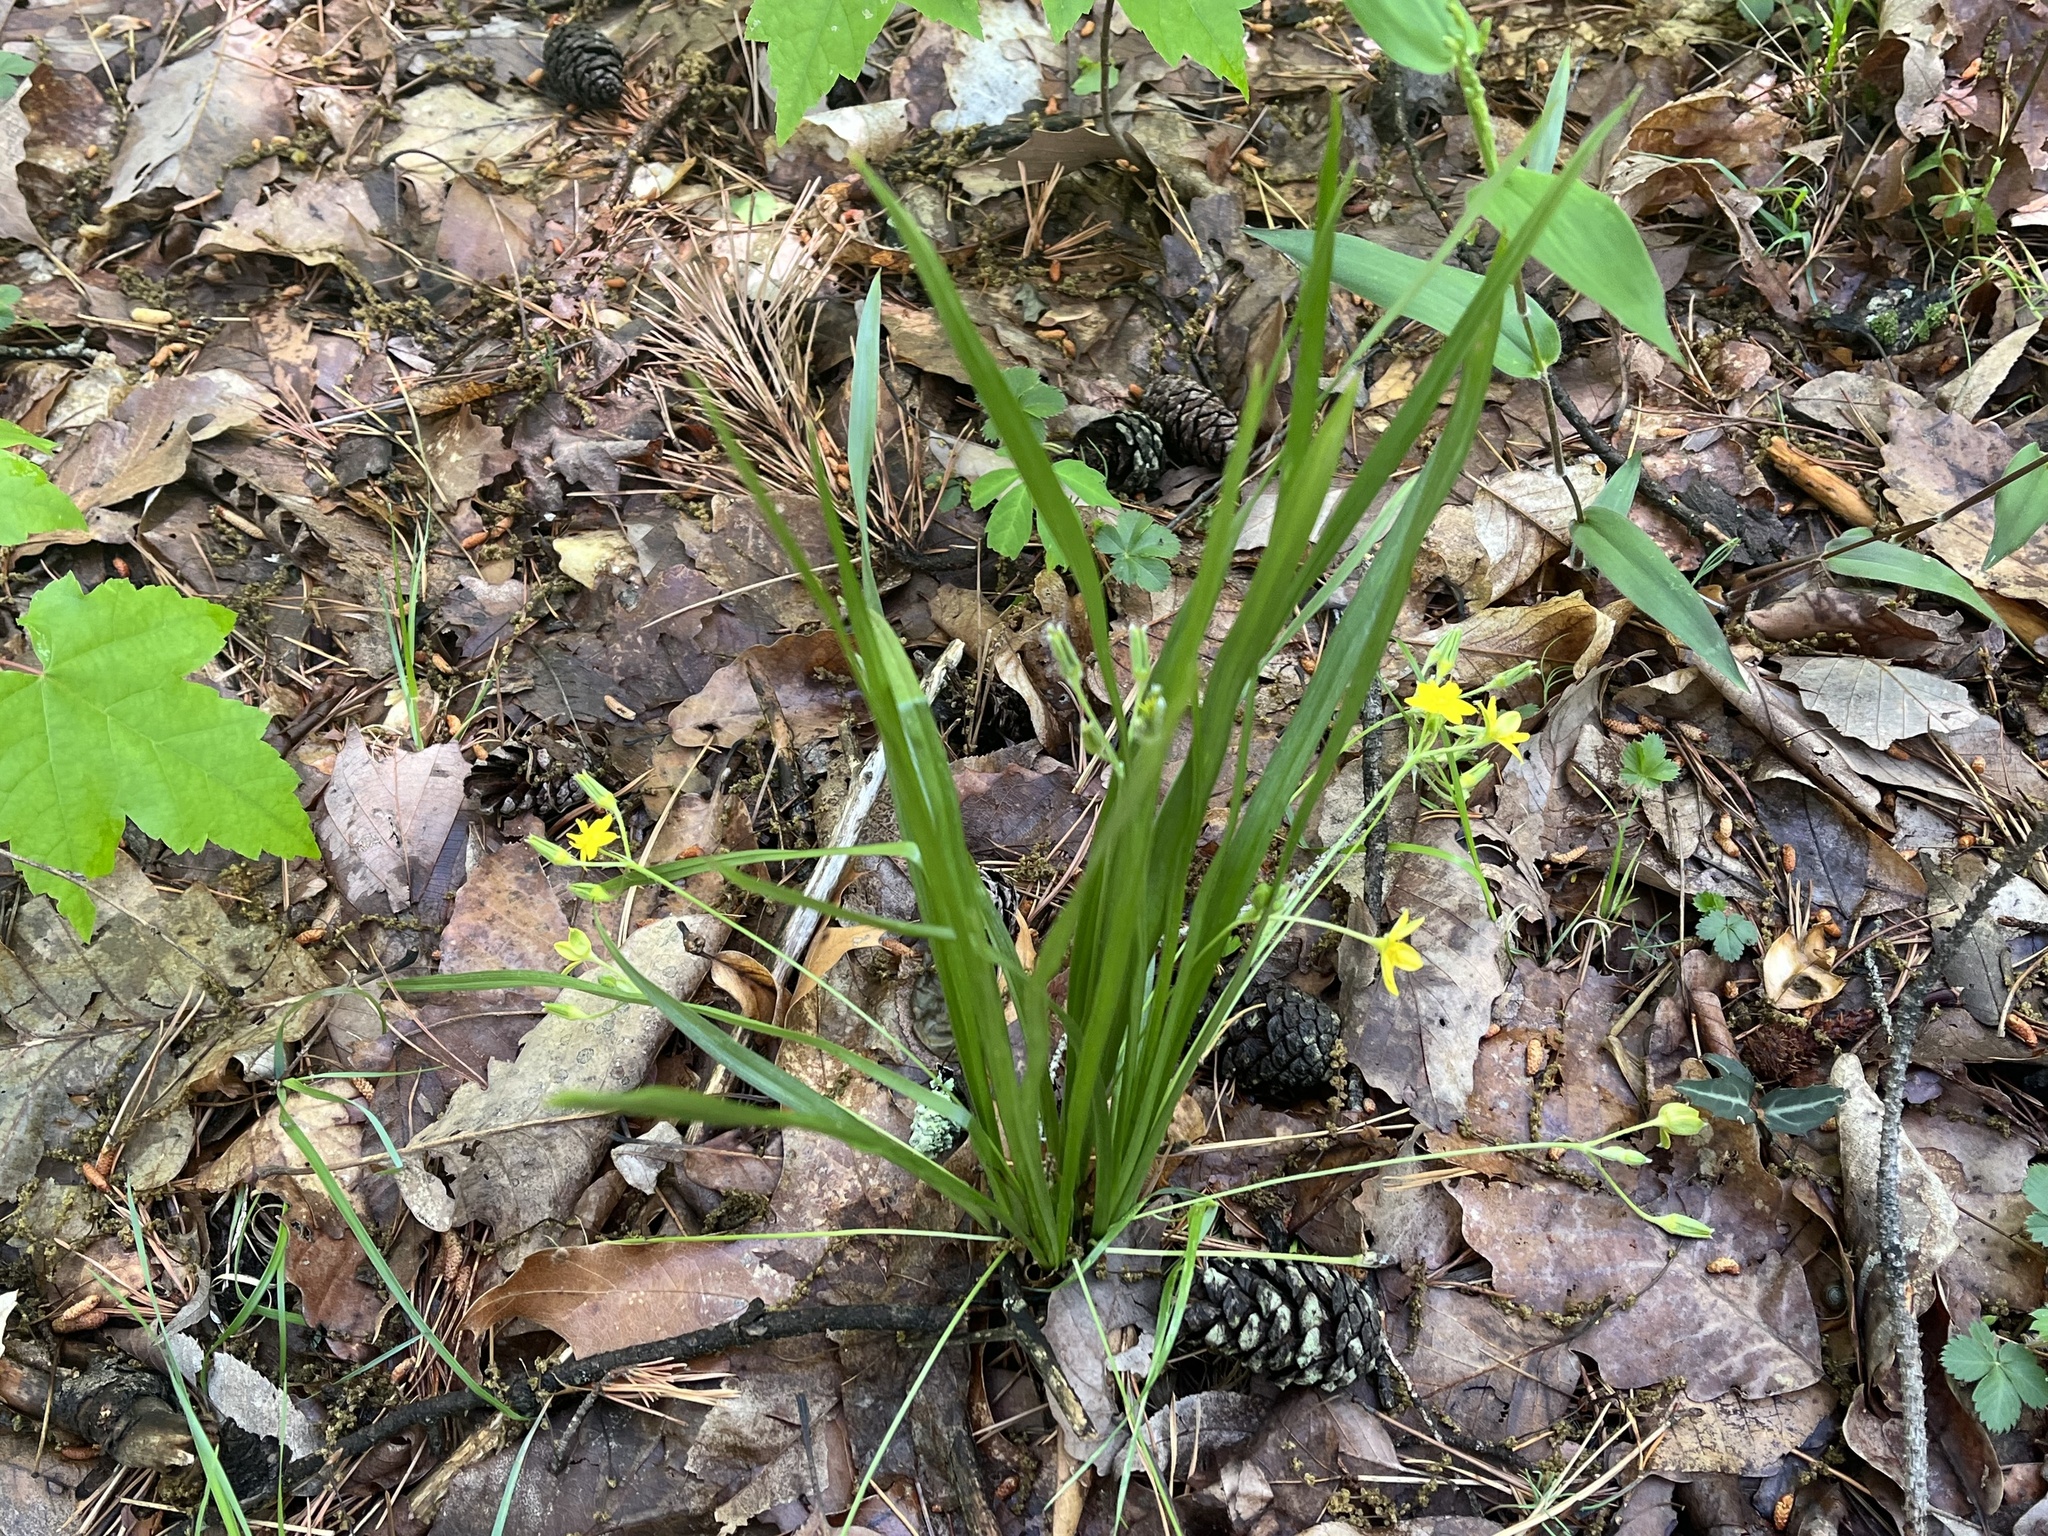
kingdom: Plantae
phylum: Tracheophyta
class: Liliopsida
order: Asparagales
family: Hypoxidaceae
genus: Hypoxis
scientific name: Hypoxis hirsuta
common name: Common goldstar
